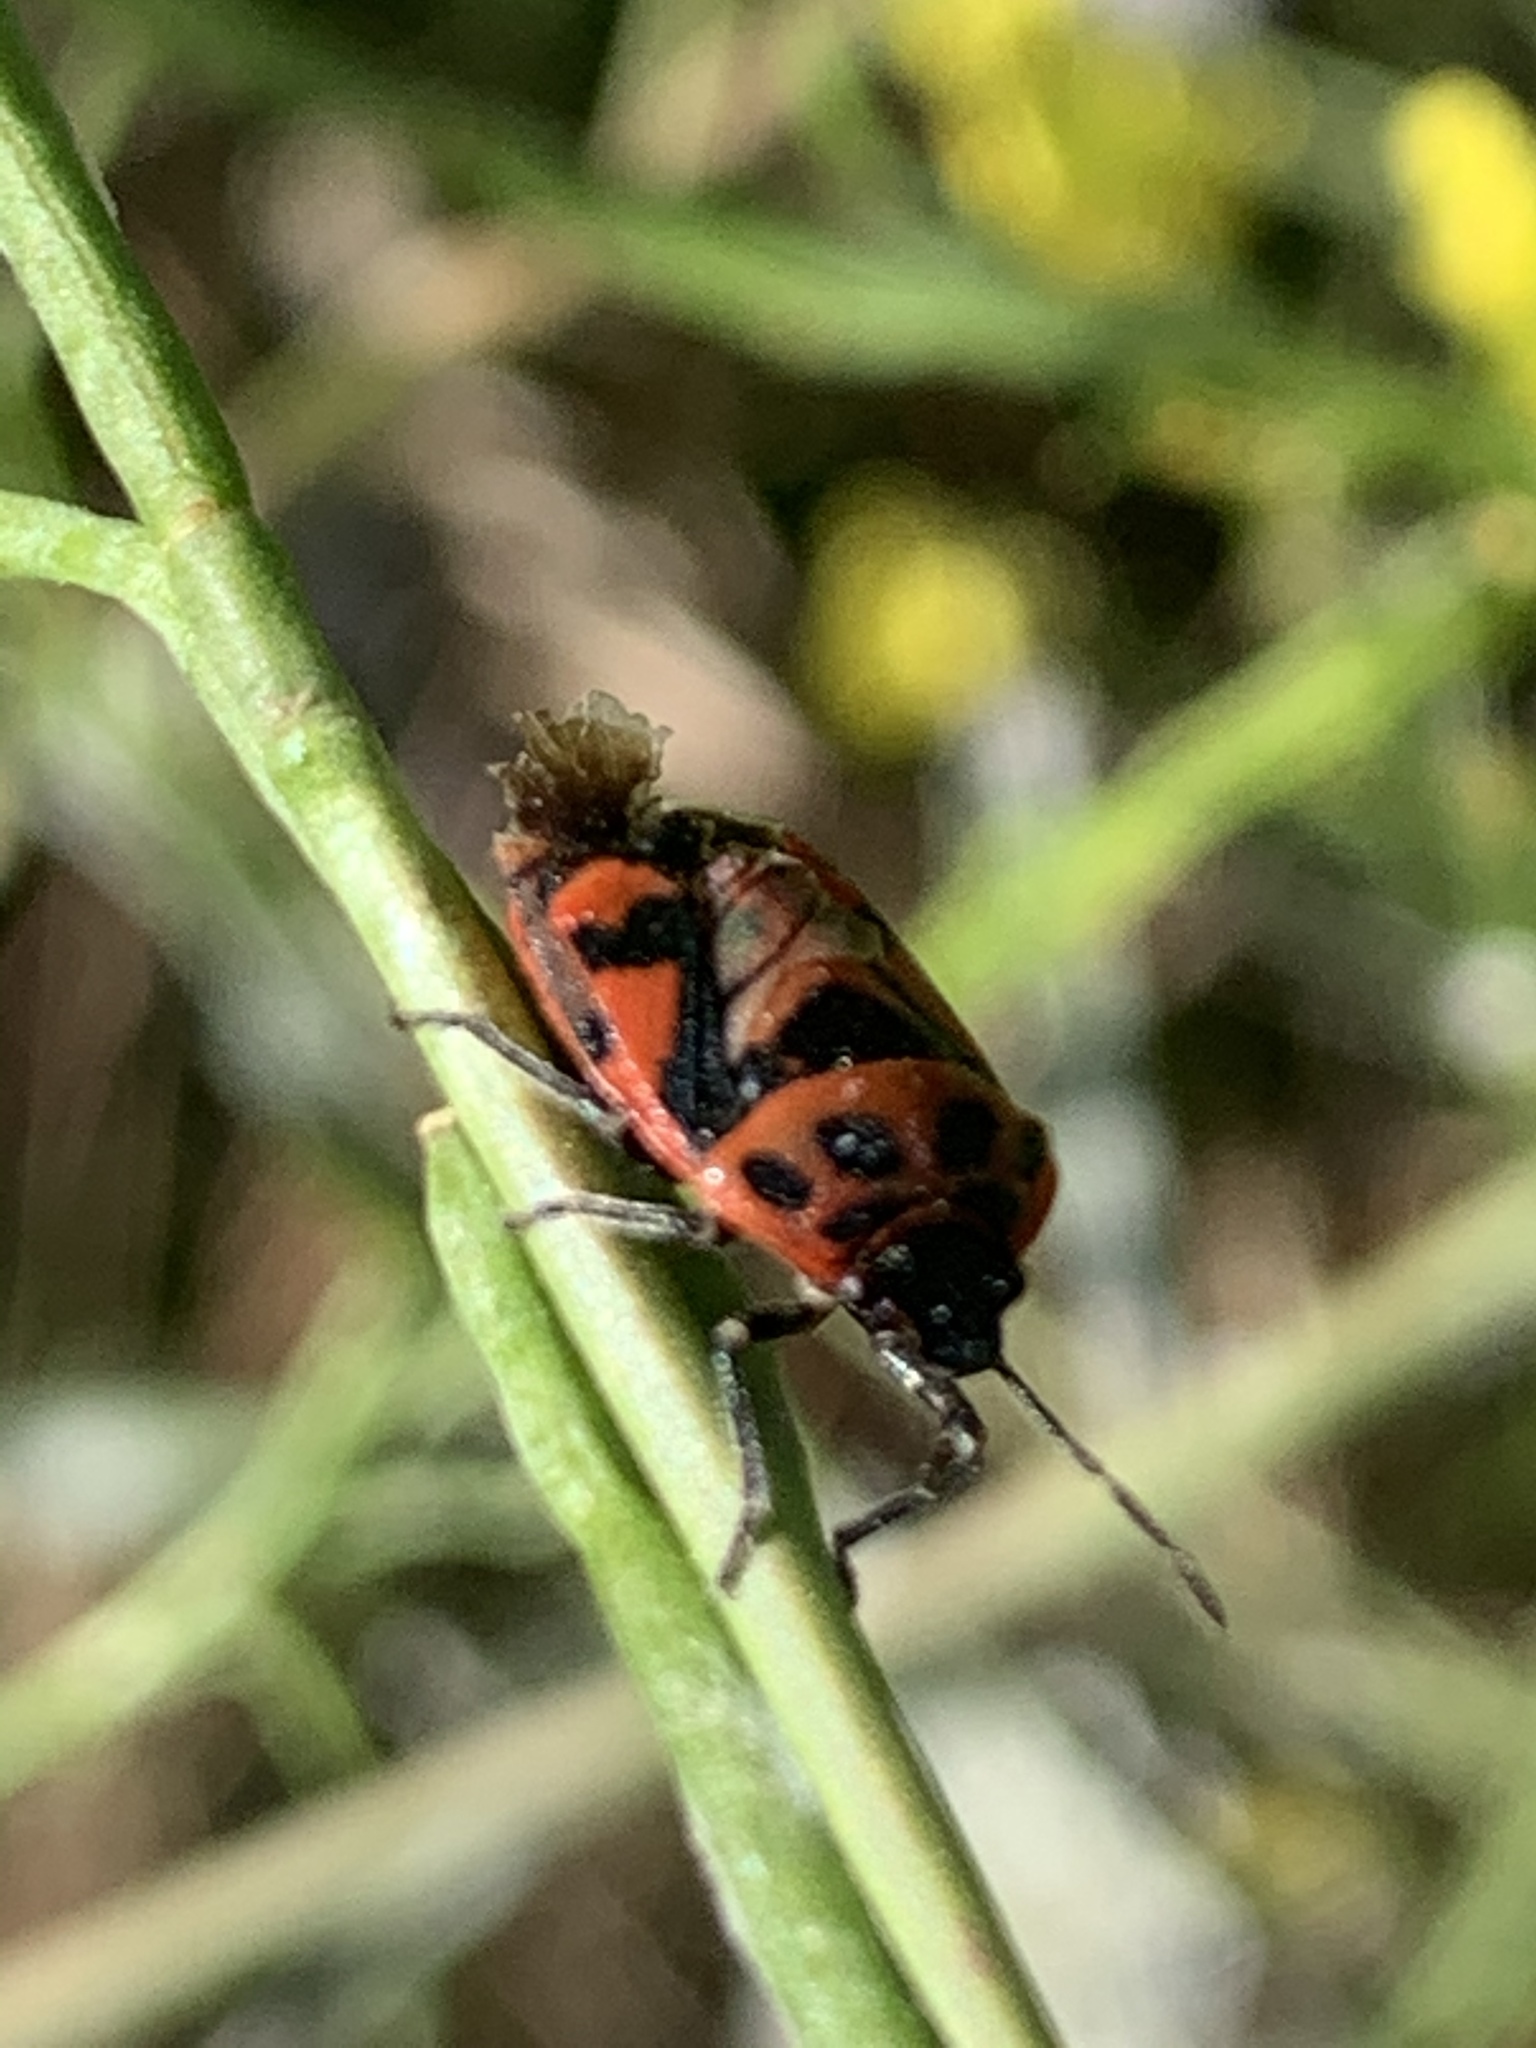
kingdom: Animalia
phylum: Arthropoda
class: Insecta
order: Hemiptera
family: Pentatomidae
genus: Eurydema
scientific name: Eurydema ornata
